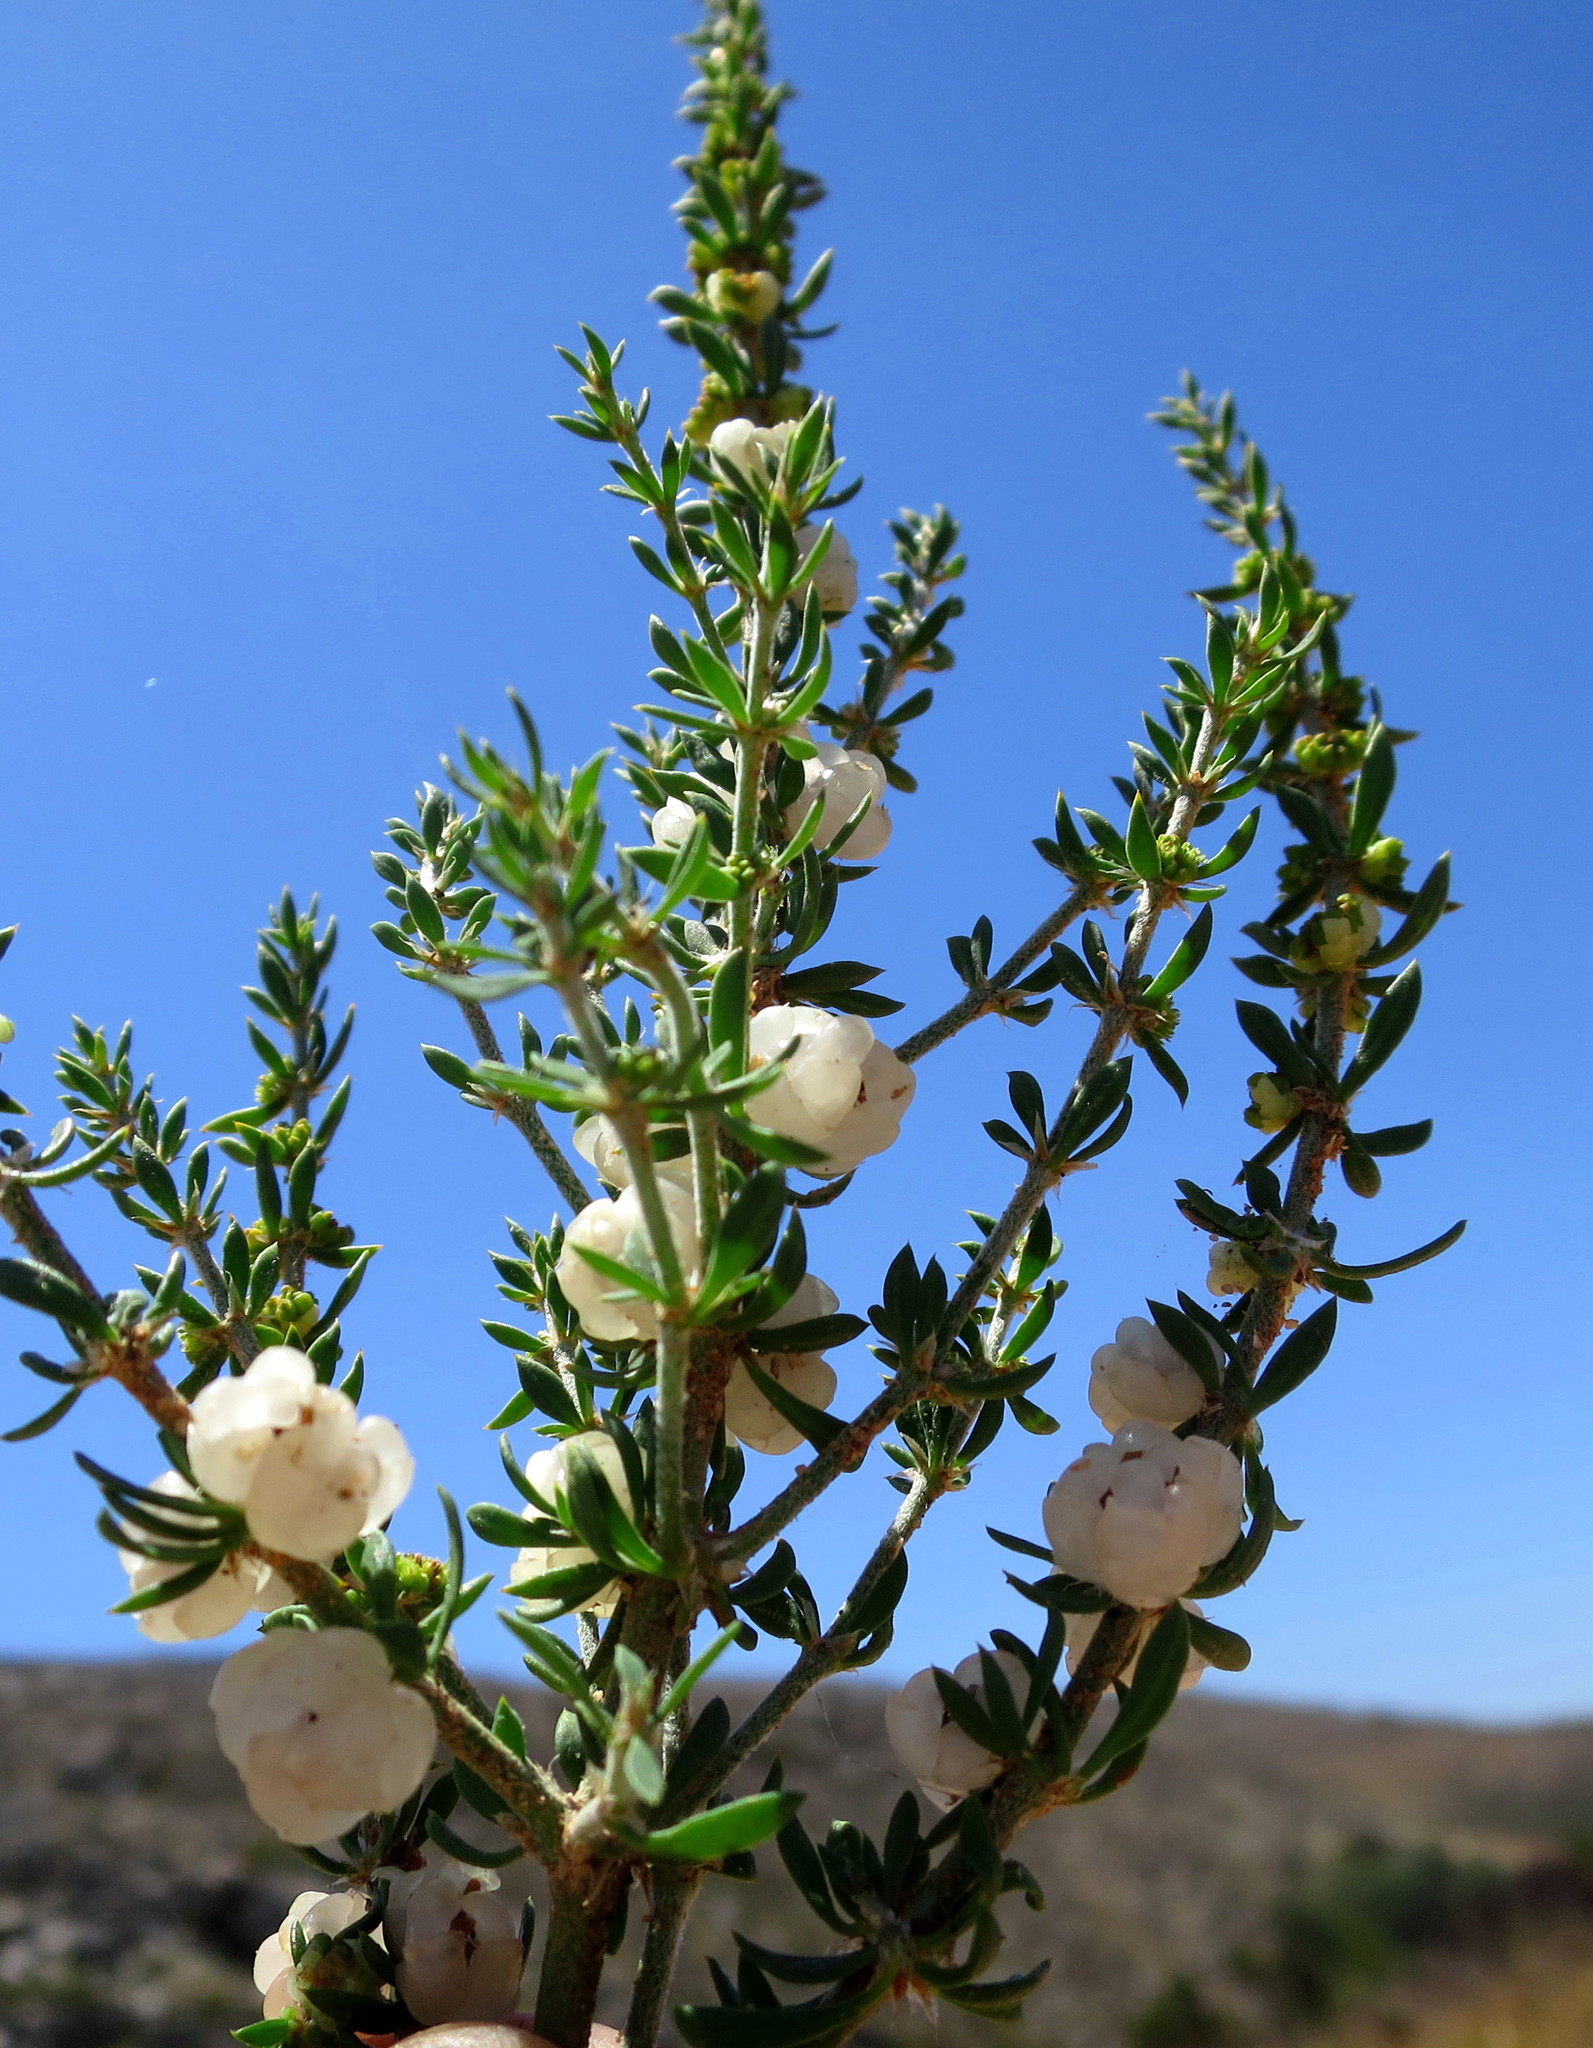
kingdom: Plantae
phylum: Tracheophyta
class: Magnoliopsida
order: Caryophyllales
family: Caryophyllaceae
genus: Pollichia
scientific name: Pollichia campestris
